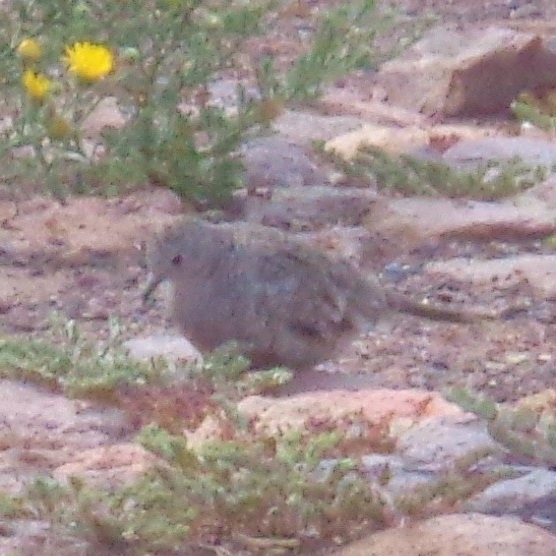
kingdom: Animalia
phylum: Chordata
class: Aves
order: Columbiformes
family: Columbidae
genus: Columbina
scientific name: Columbina inca
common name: Inca dove
